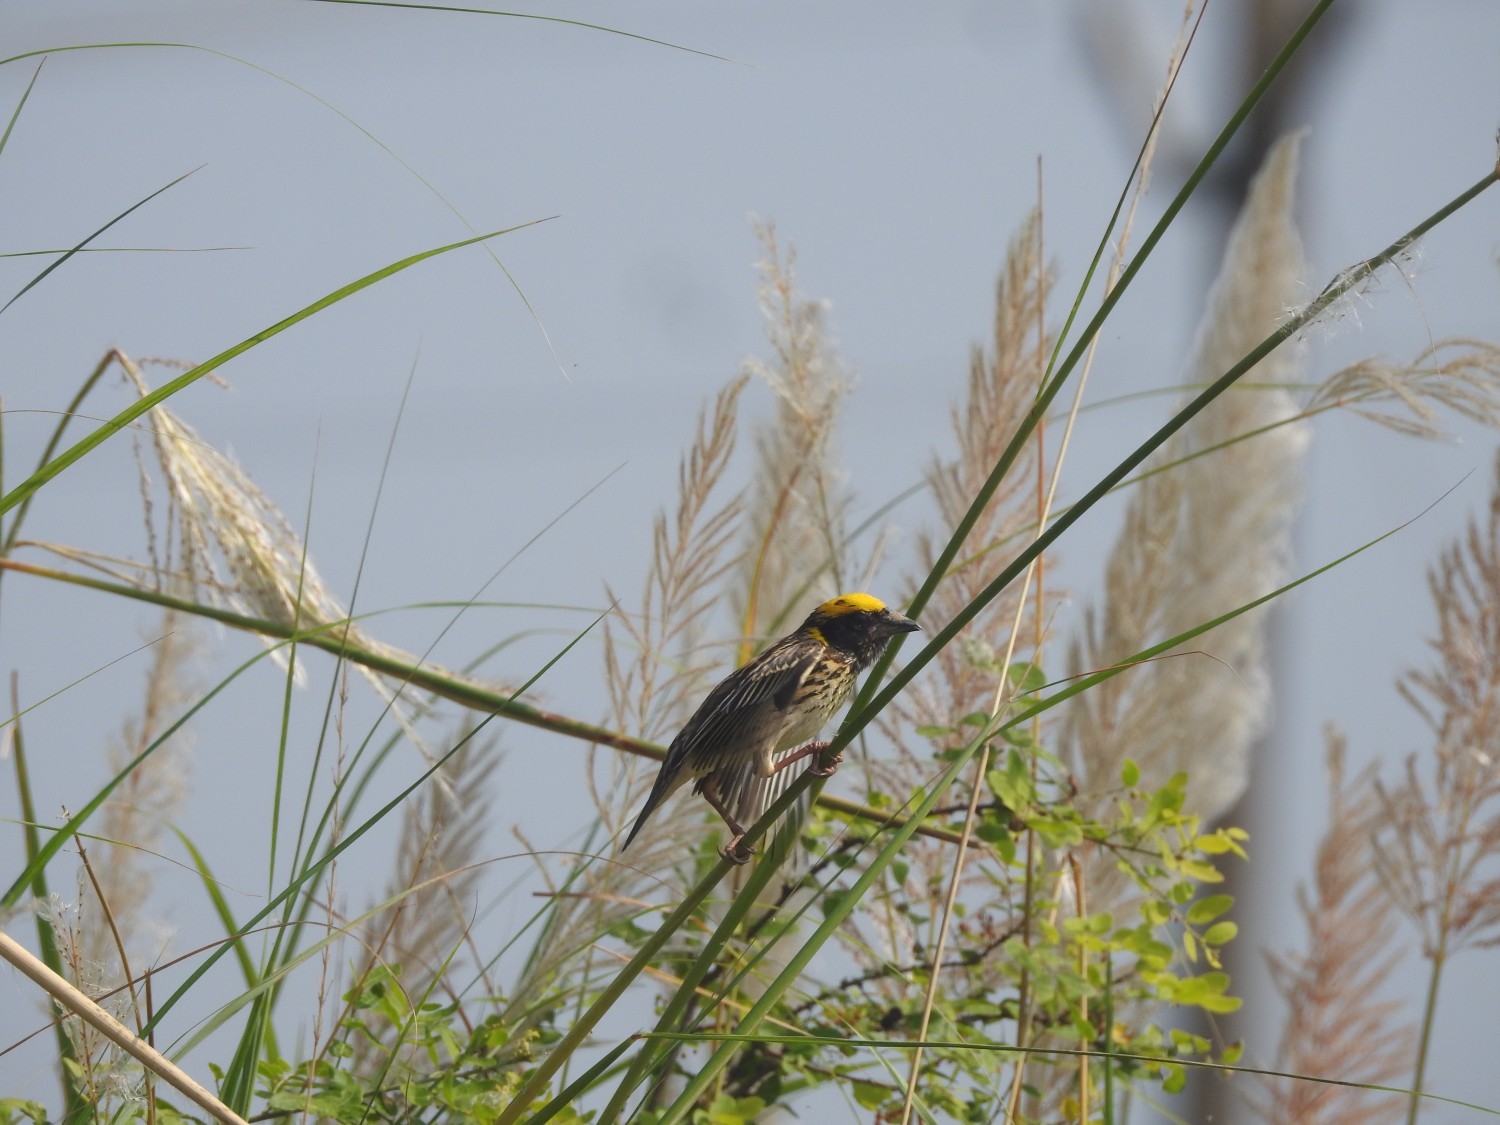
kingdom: Animalia
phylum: Chordata
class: Aves
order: Passeriformes
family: Ploceidae
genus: Ploceus
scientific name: Ploceus manyar
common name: Streaked weaver
